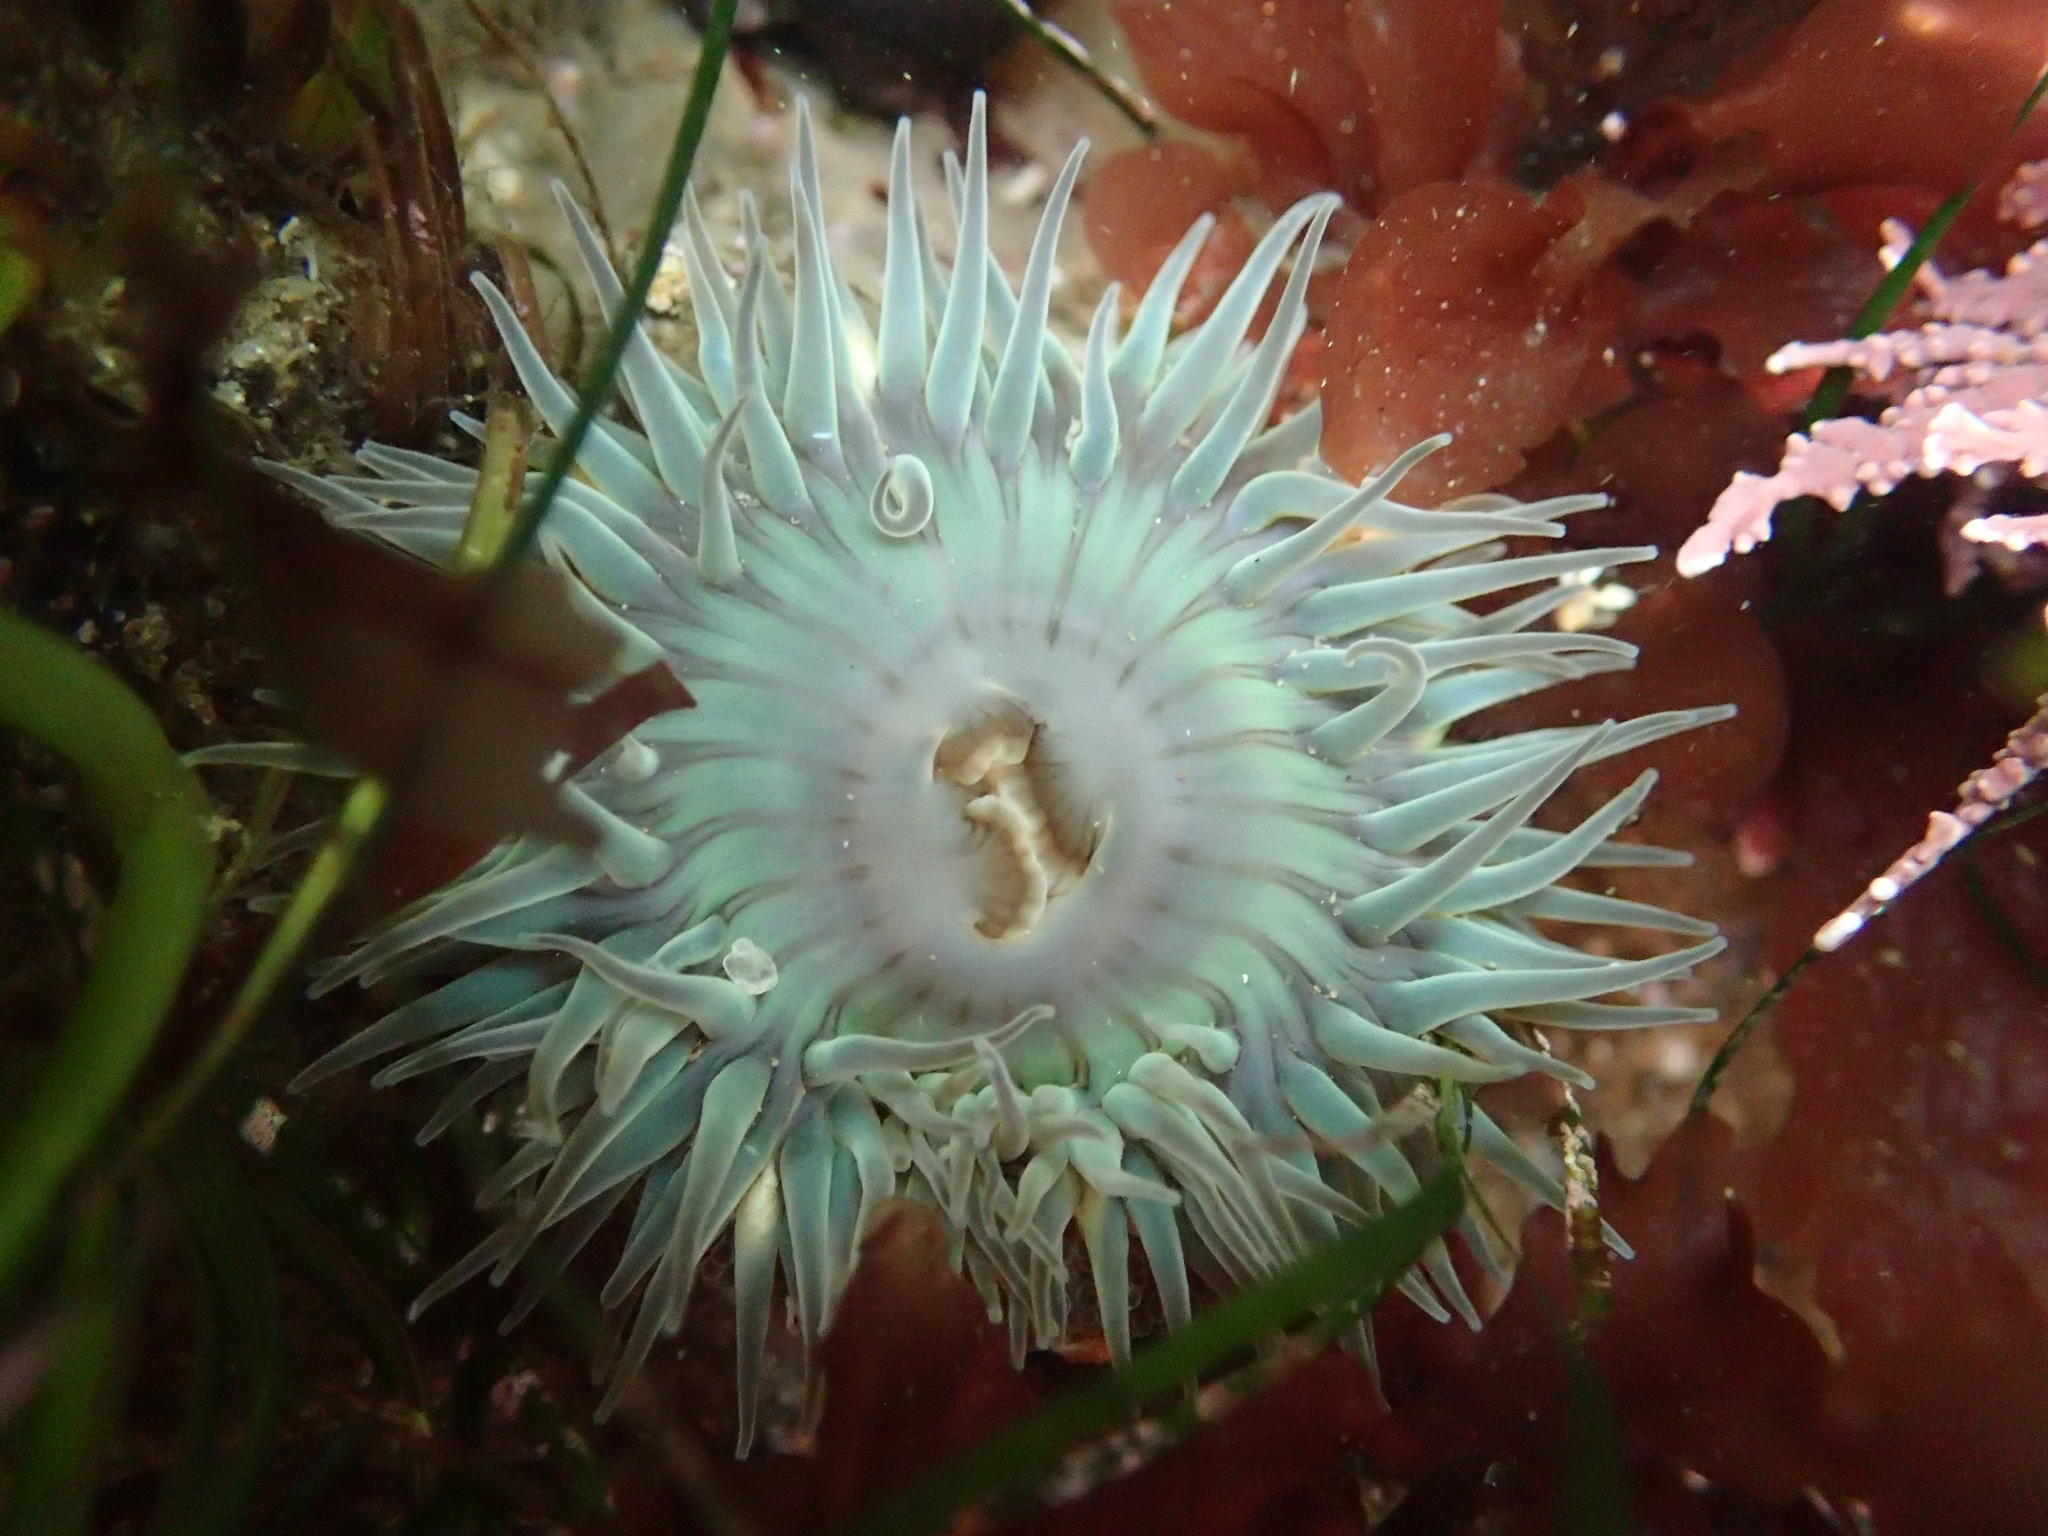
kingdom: Animalia
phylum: Cnidaria
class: Anthozoa
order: Actiniaria
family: Actiniidae
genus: Anthopleura
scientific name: Anthopleura sola
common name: Sun anemone
